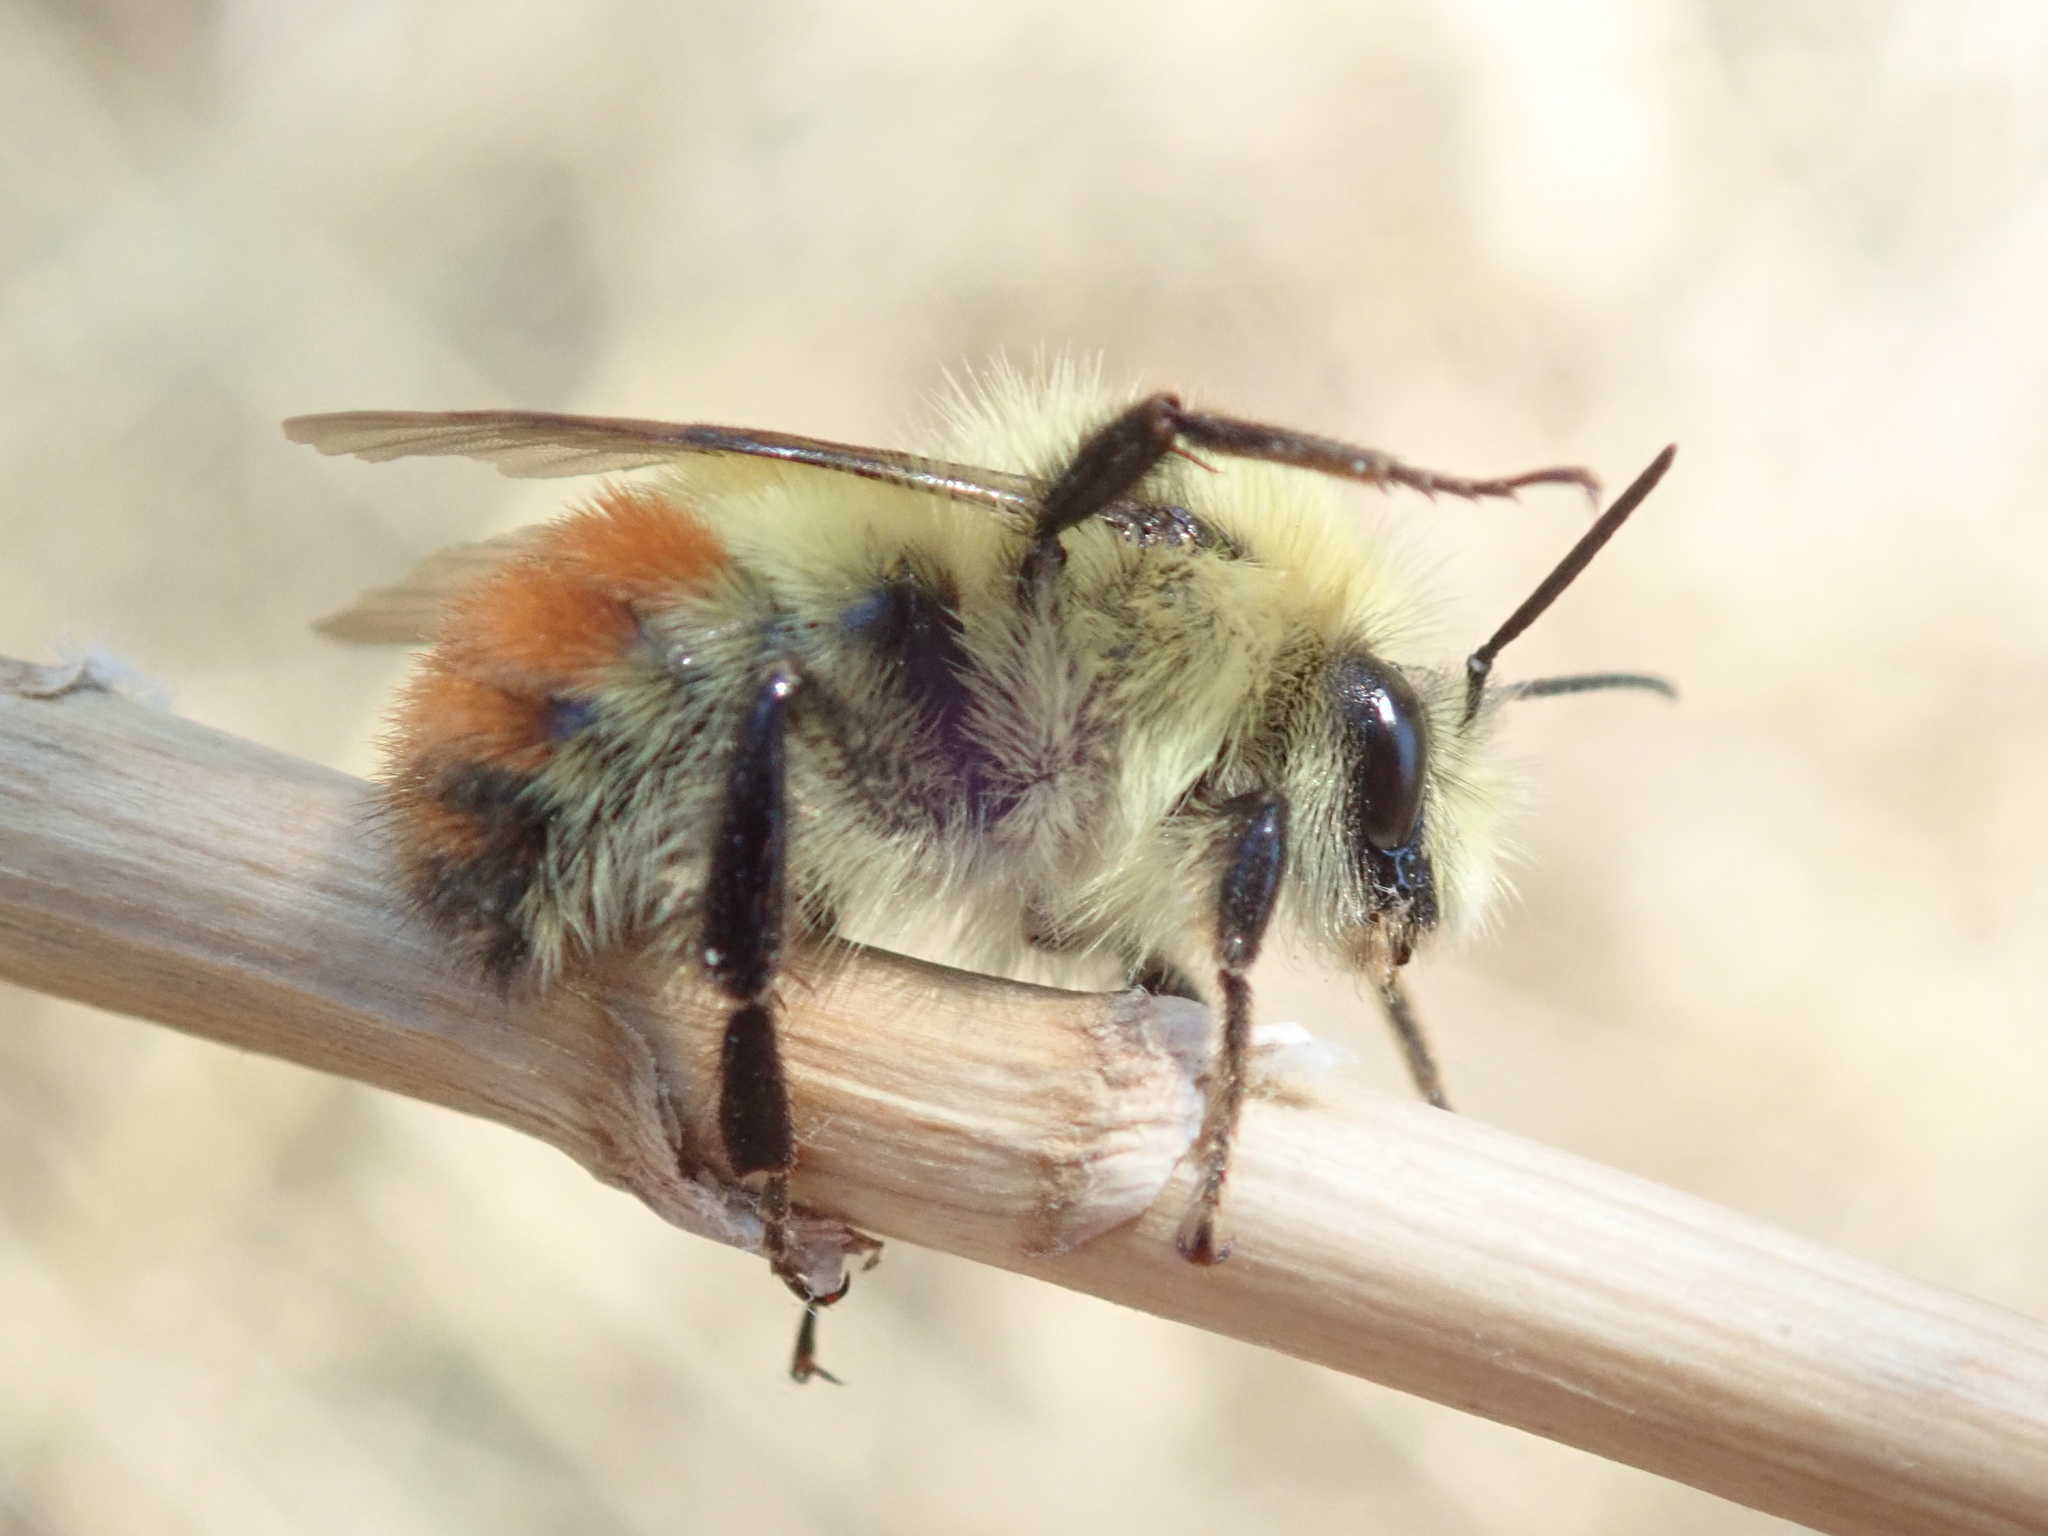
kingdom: Animalia
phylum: Arthropoda
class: Insecta
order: Hymenoptera
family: Apidae
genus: Bombus
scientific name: Bombus centralis
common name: Central bumble bee
